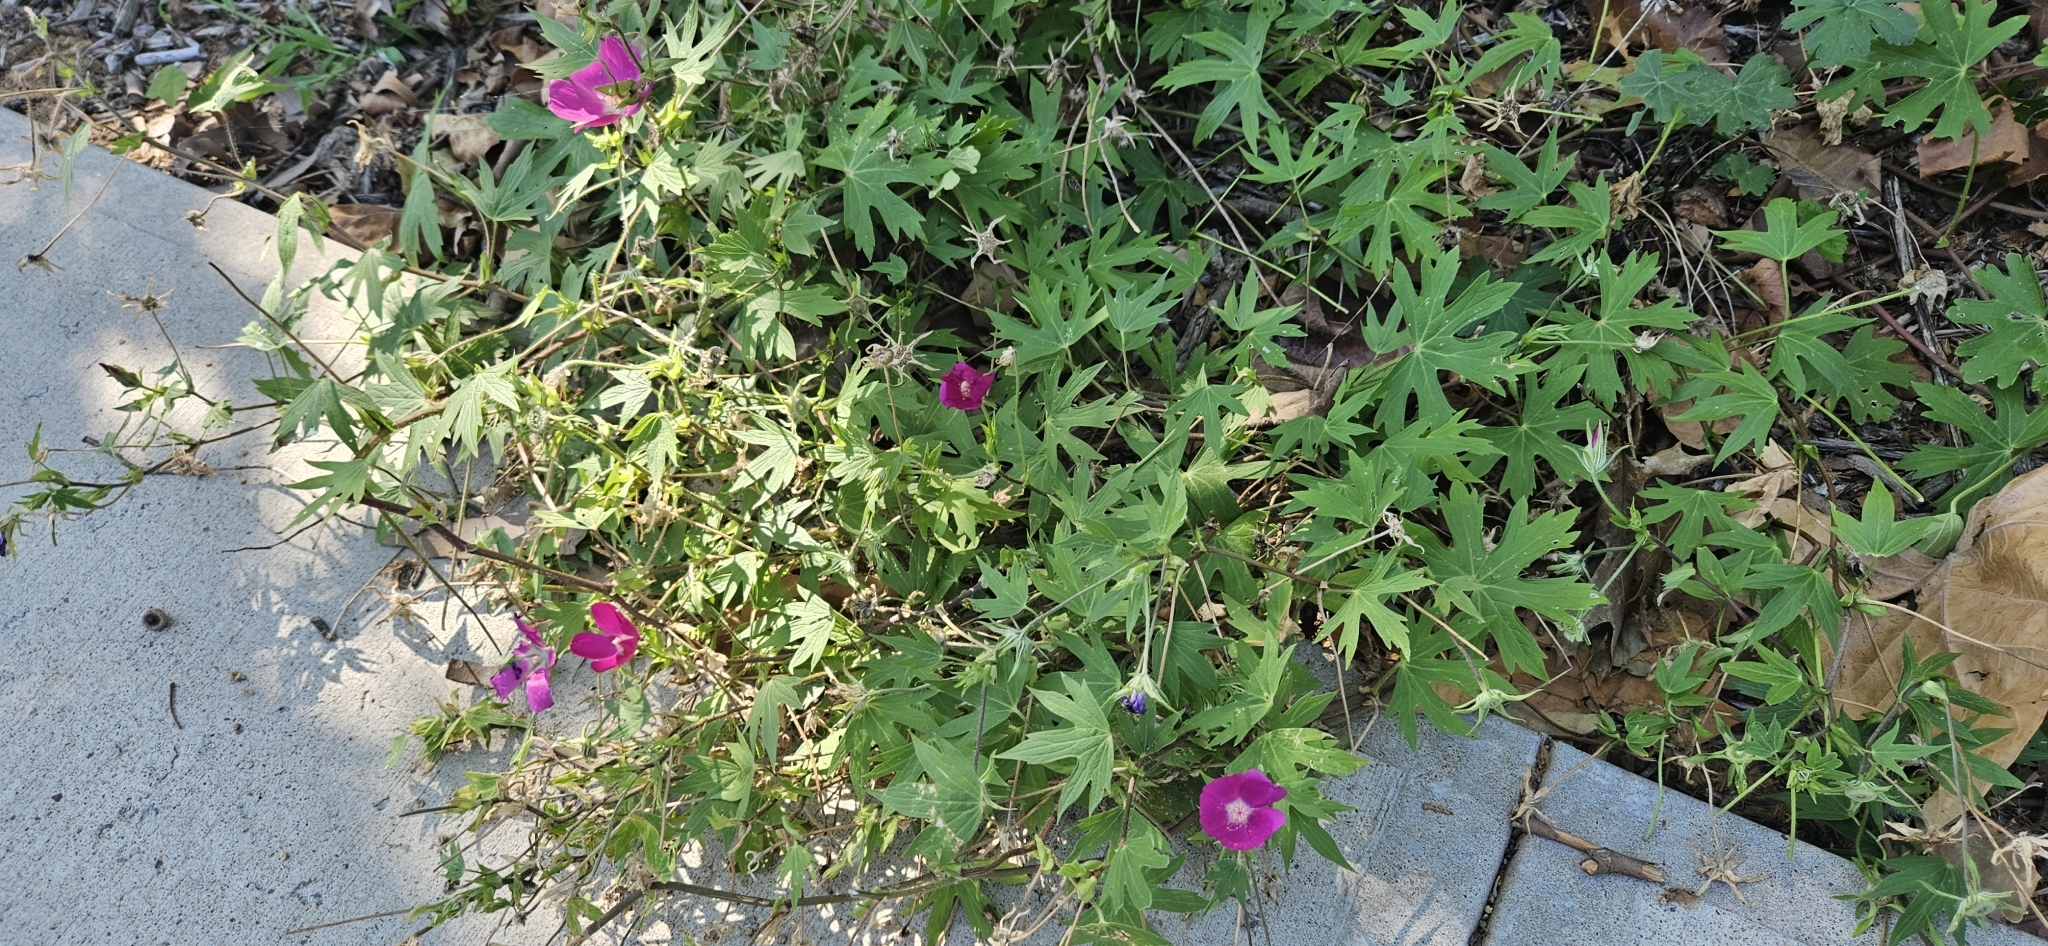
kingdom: Plantae
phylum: Tracheophyta
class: Magnoliopsida
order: Malvales
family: Malvaceae
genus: Callirhoe
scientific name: Callirhoe involucrata
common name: Purple poppy-mallow
